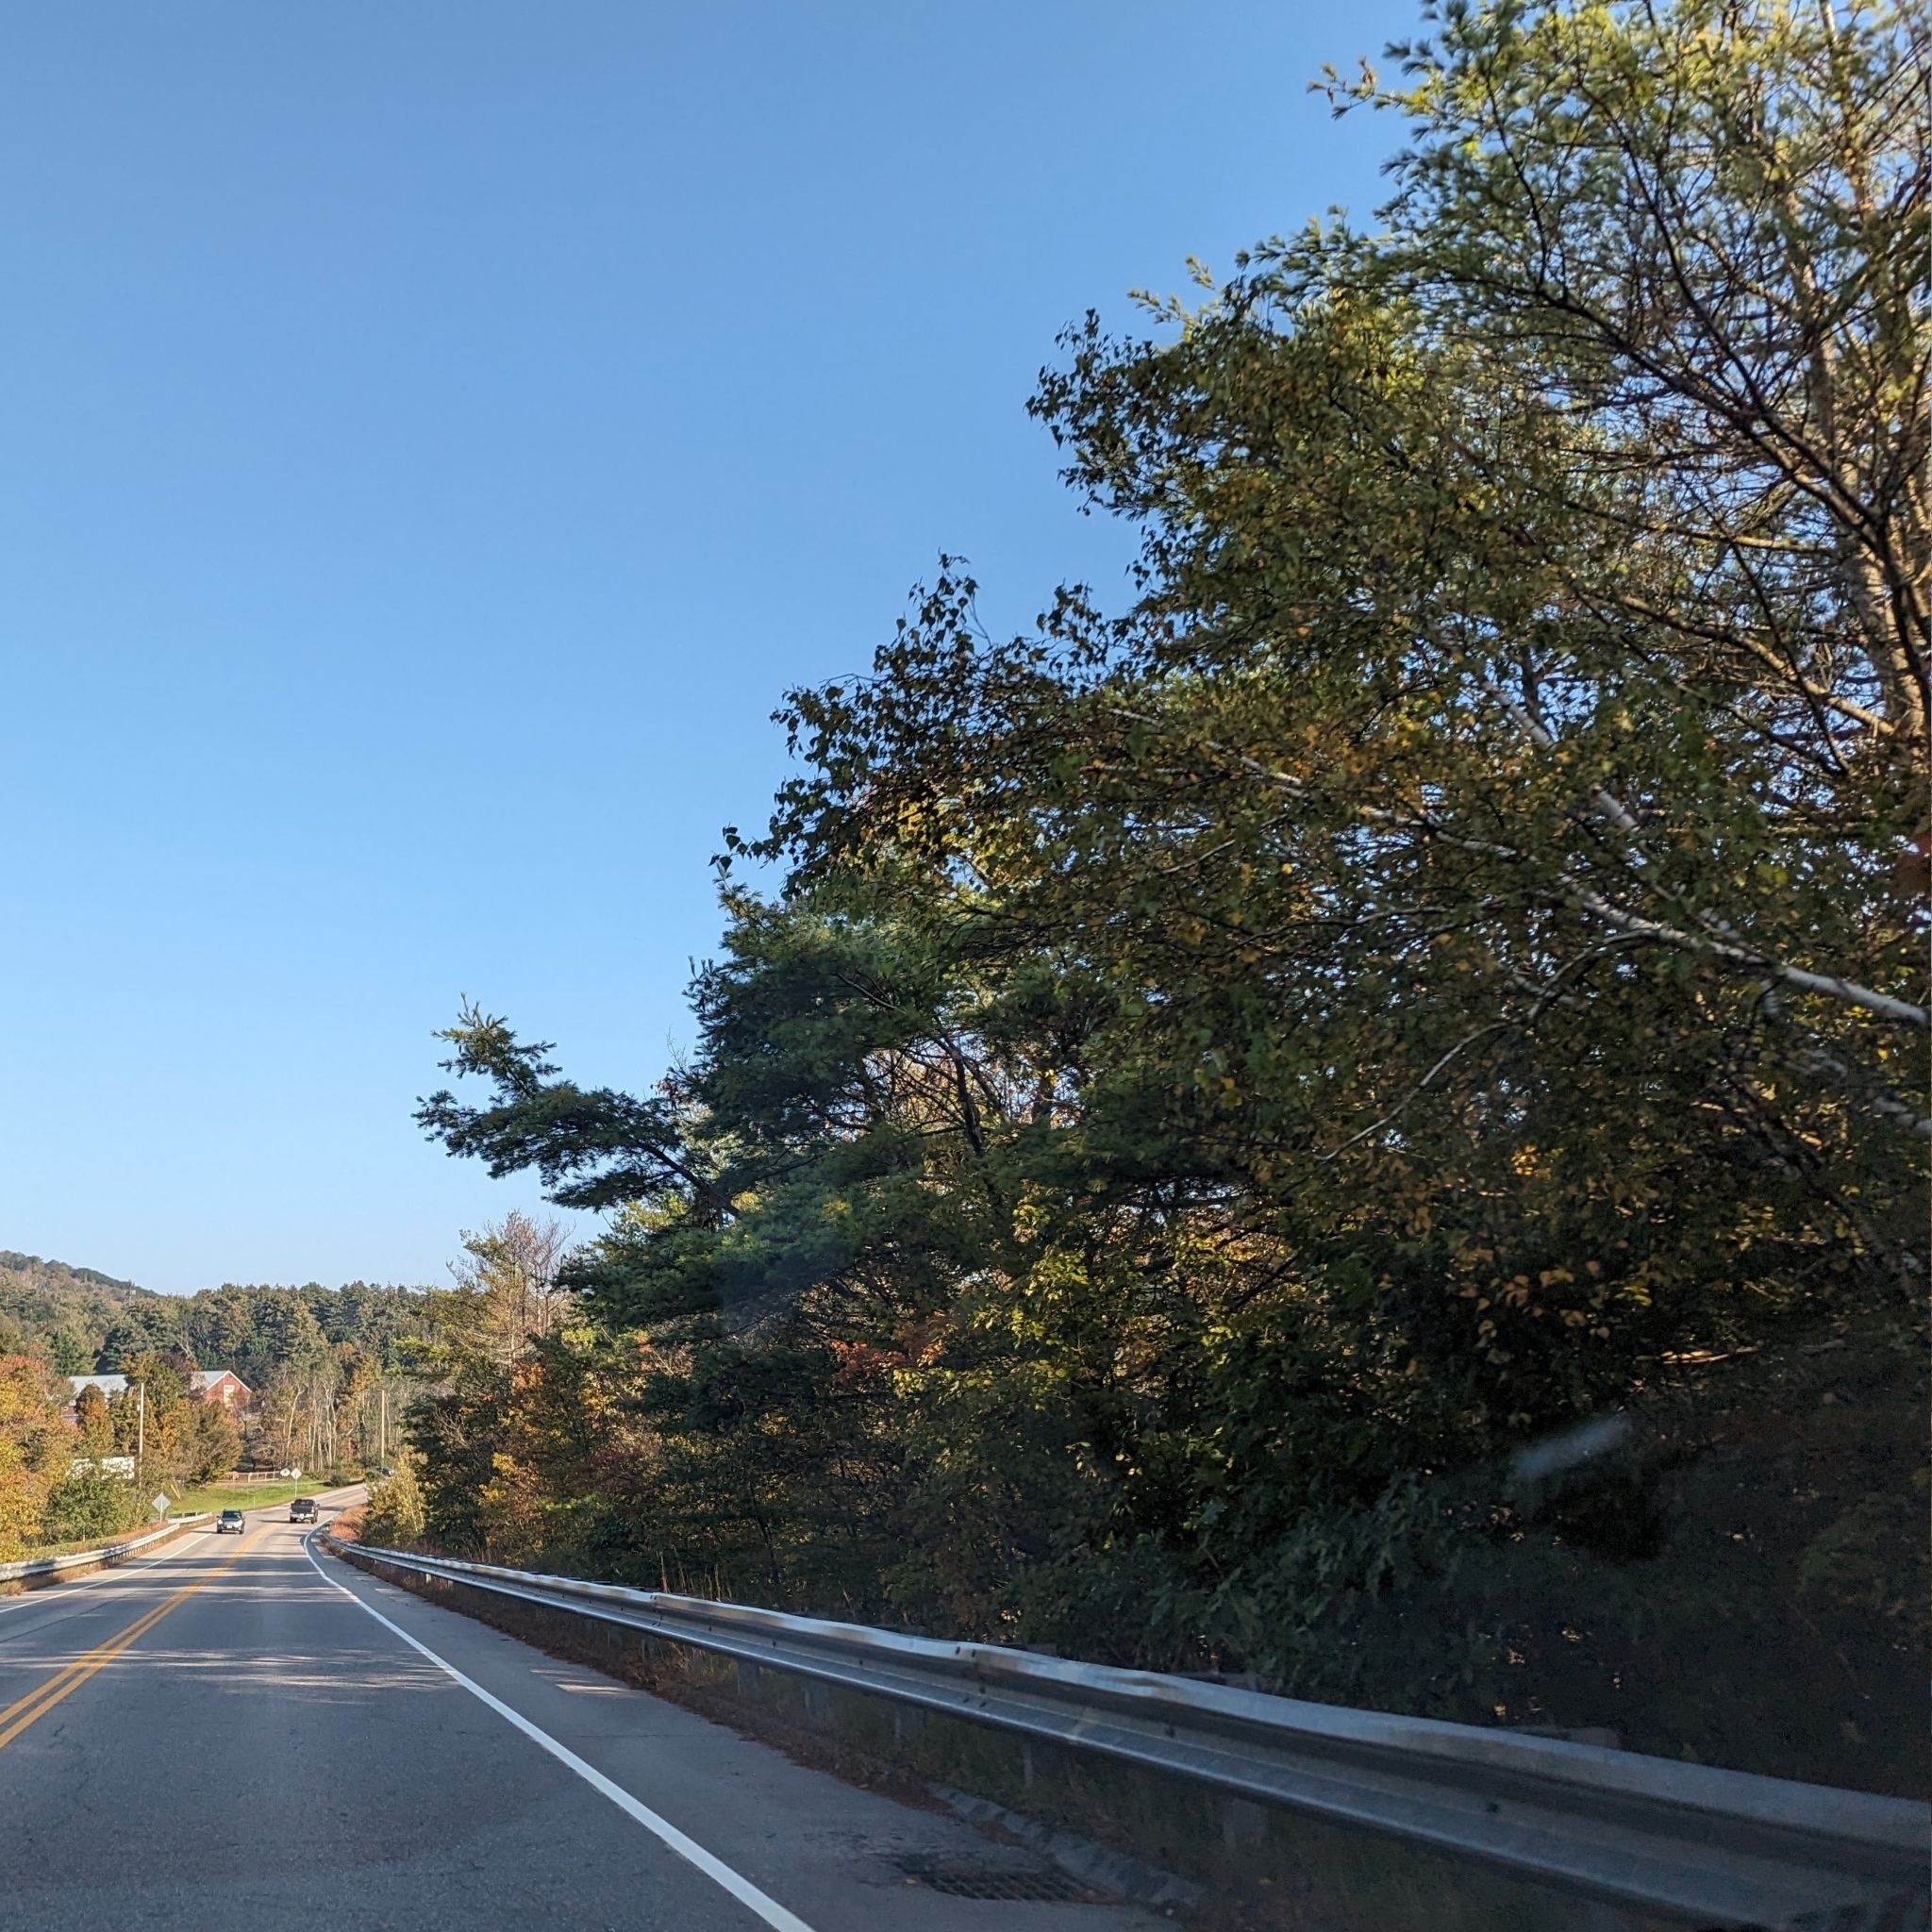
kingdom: Plantae
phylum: Tracheophyta
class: Pinopsida
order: Pinales
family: Pinaceae
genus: Pinus
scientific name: Pinus strobus
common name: Weymouth pine
